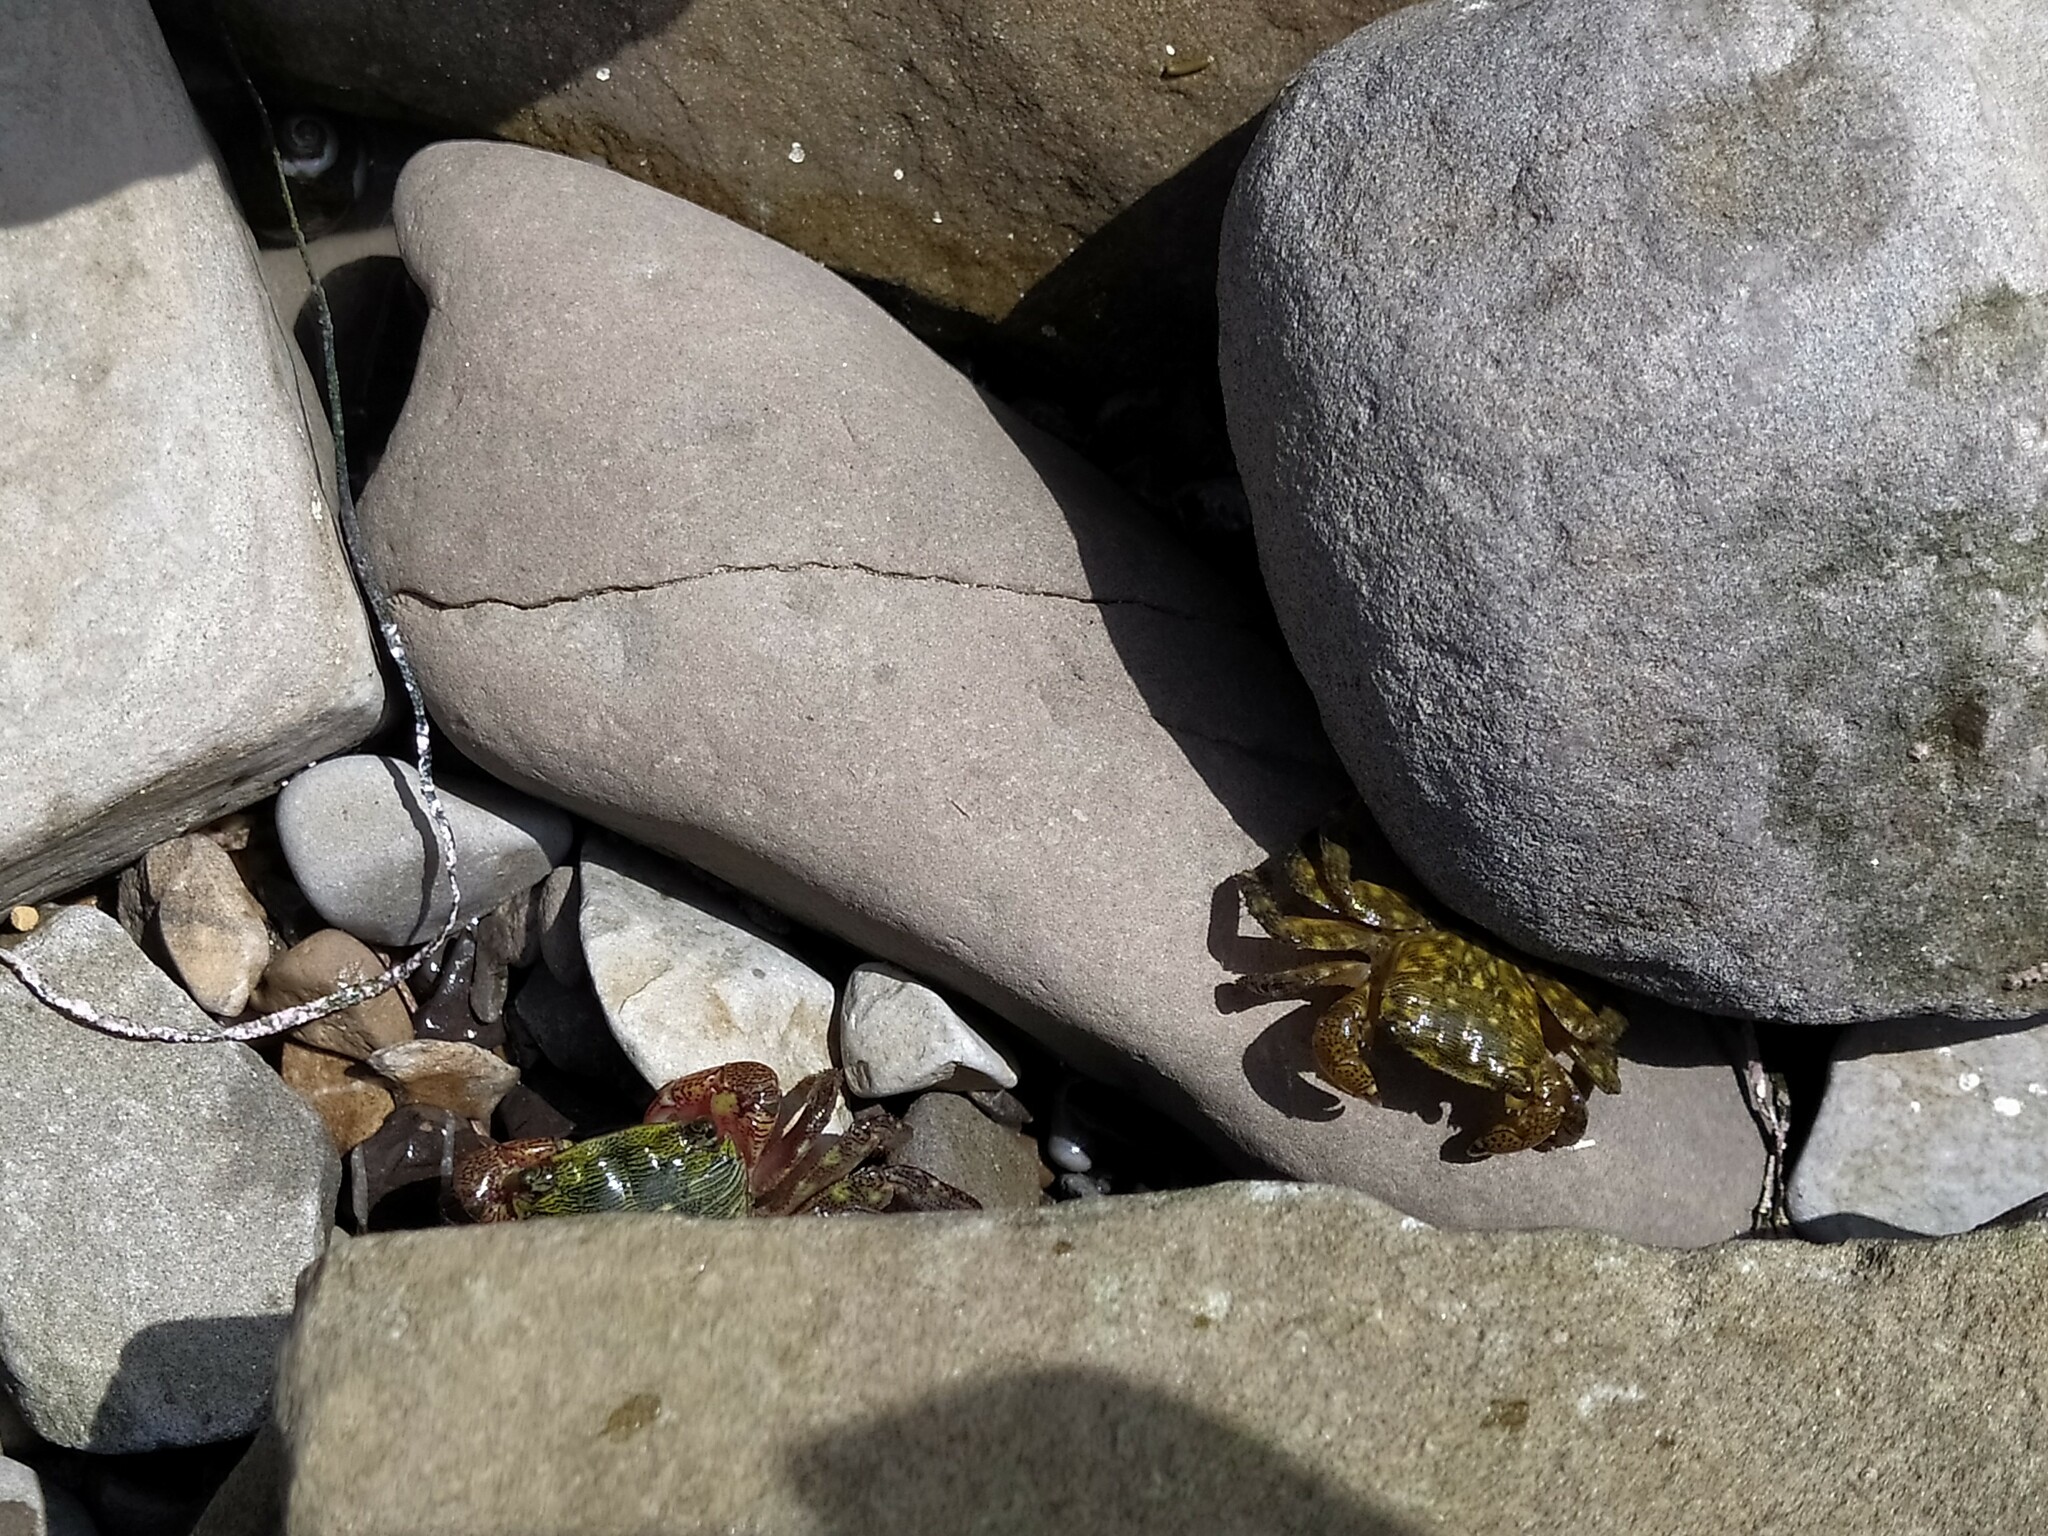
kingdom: Animalia
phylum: Arthropoda
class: Malacostraca
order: Decapoda
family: Grapsidae
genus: Pachygrapsus
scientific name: Pachygrapsus crassipes
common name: Striped shore crab
